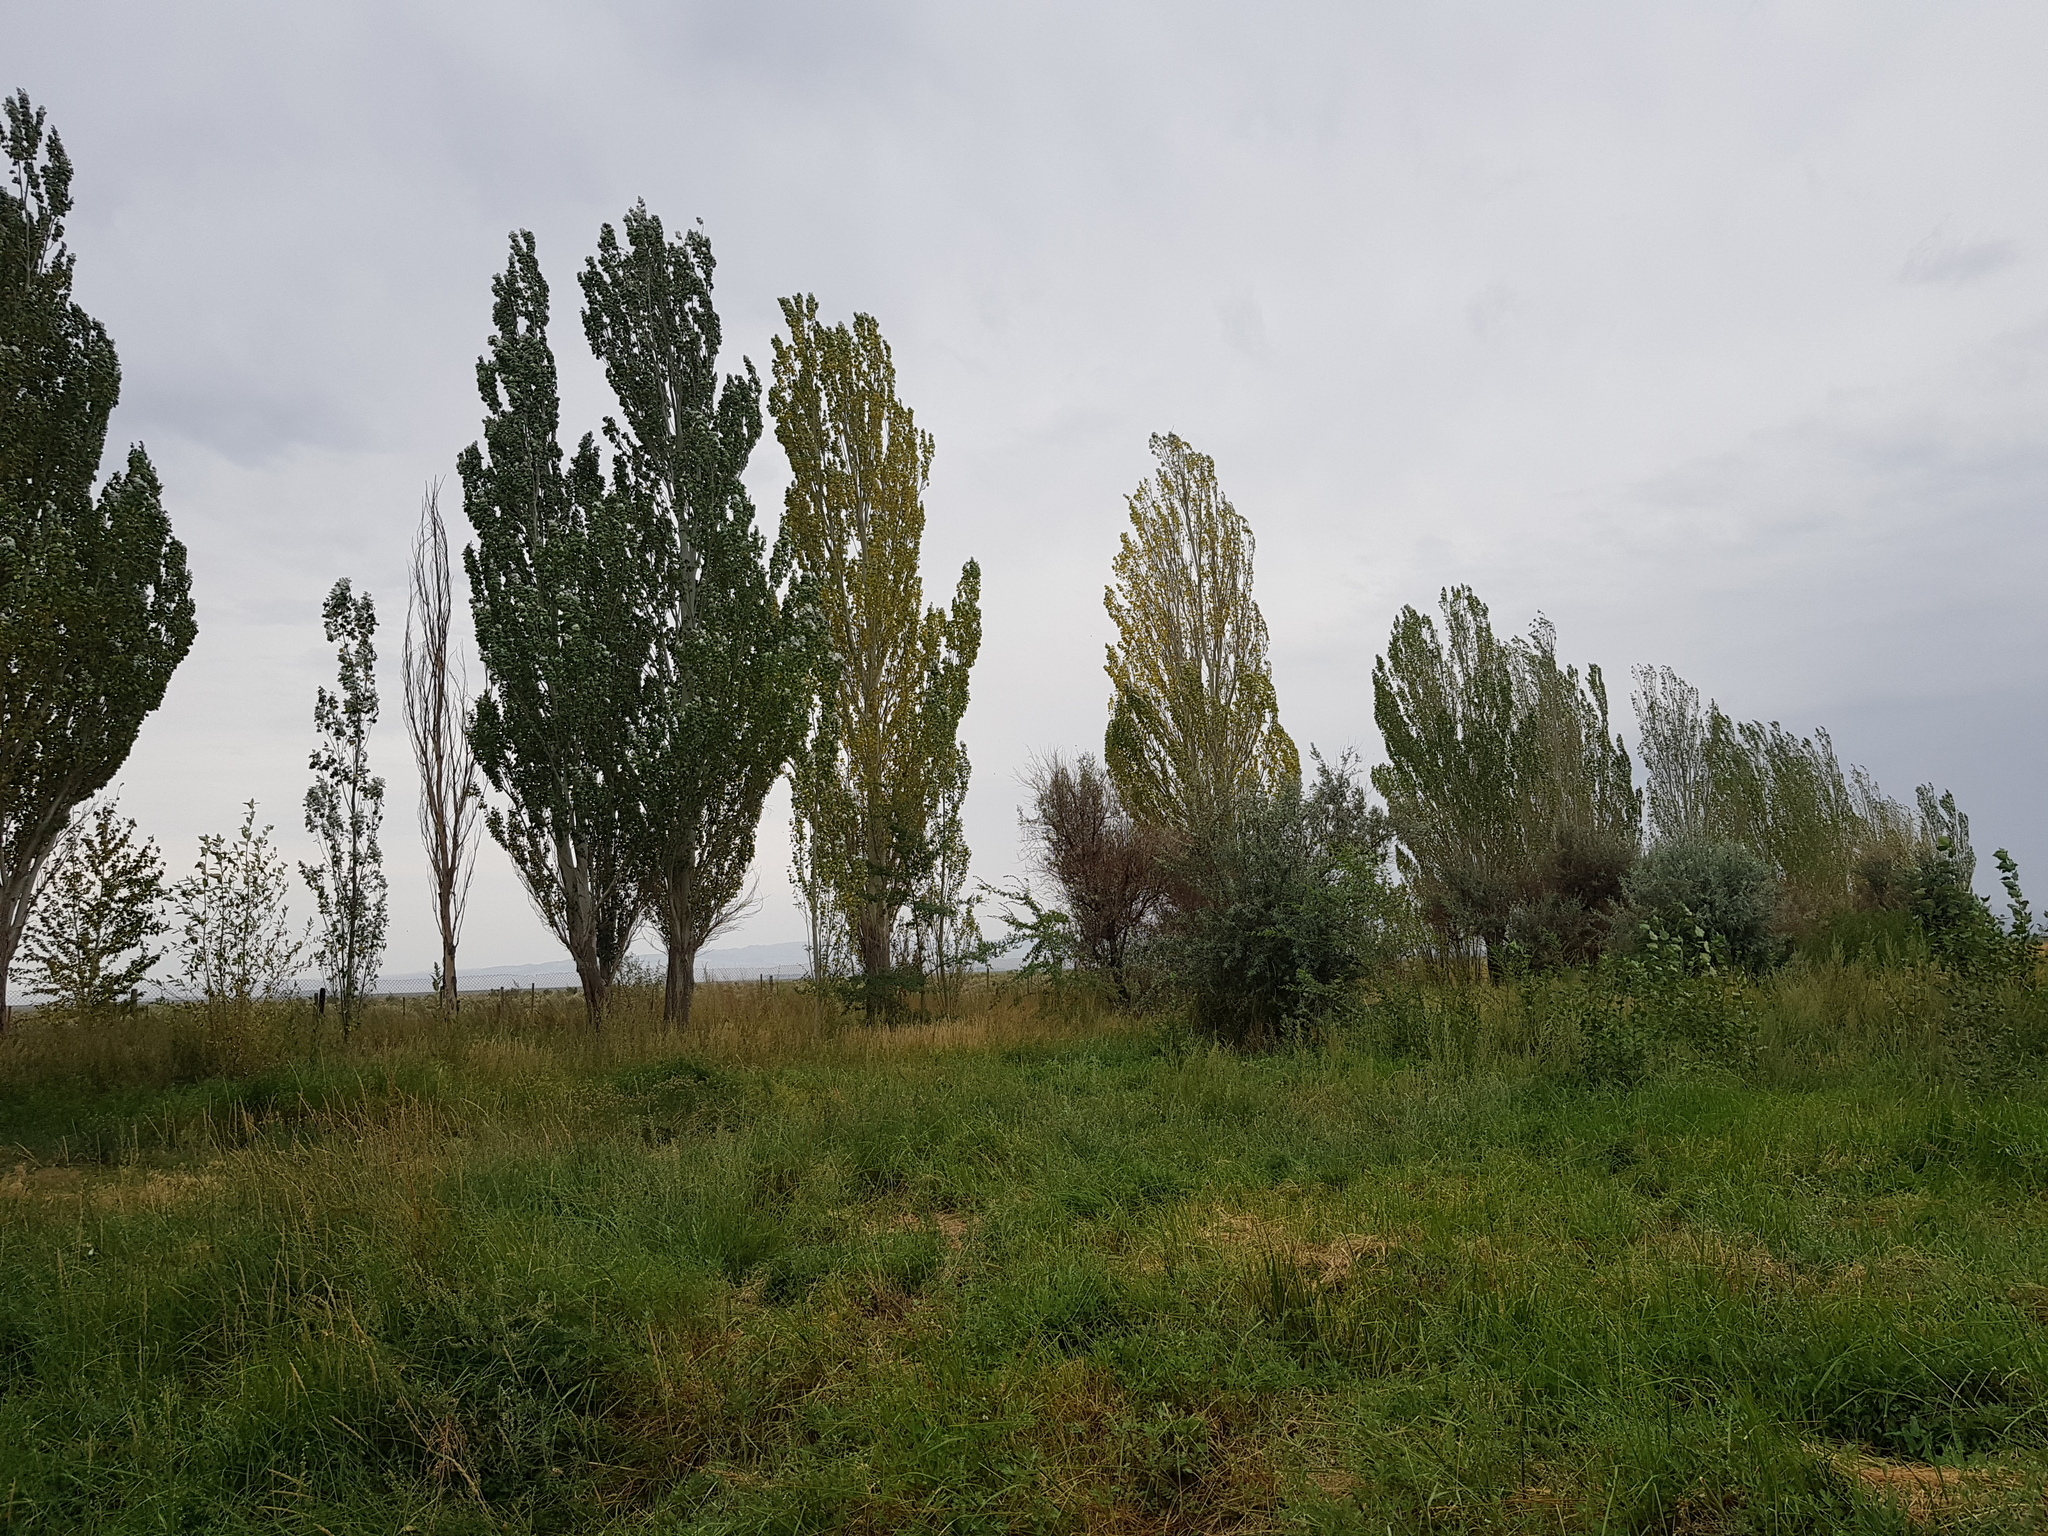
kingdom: Plantae
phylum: Tracheophyta
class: Magnoliopsida
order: Malpighiales
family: Salicaceae
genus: Populus
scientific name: Populus alba
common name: White poplar
